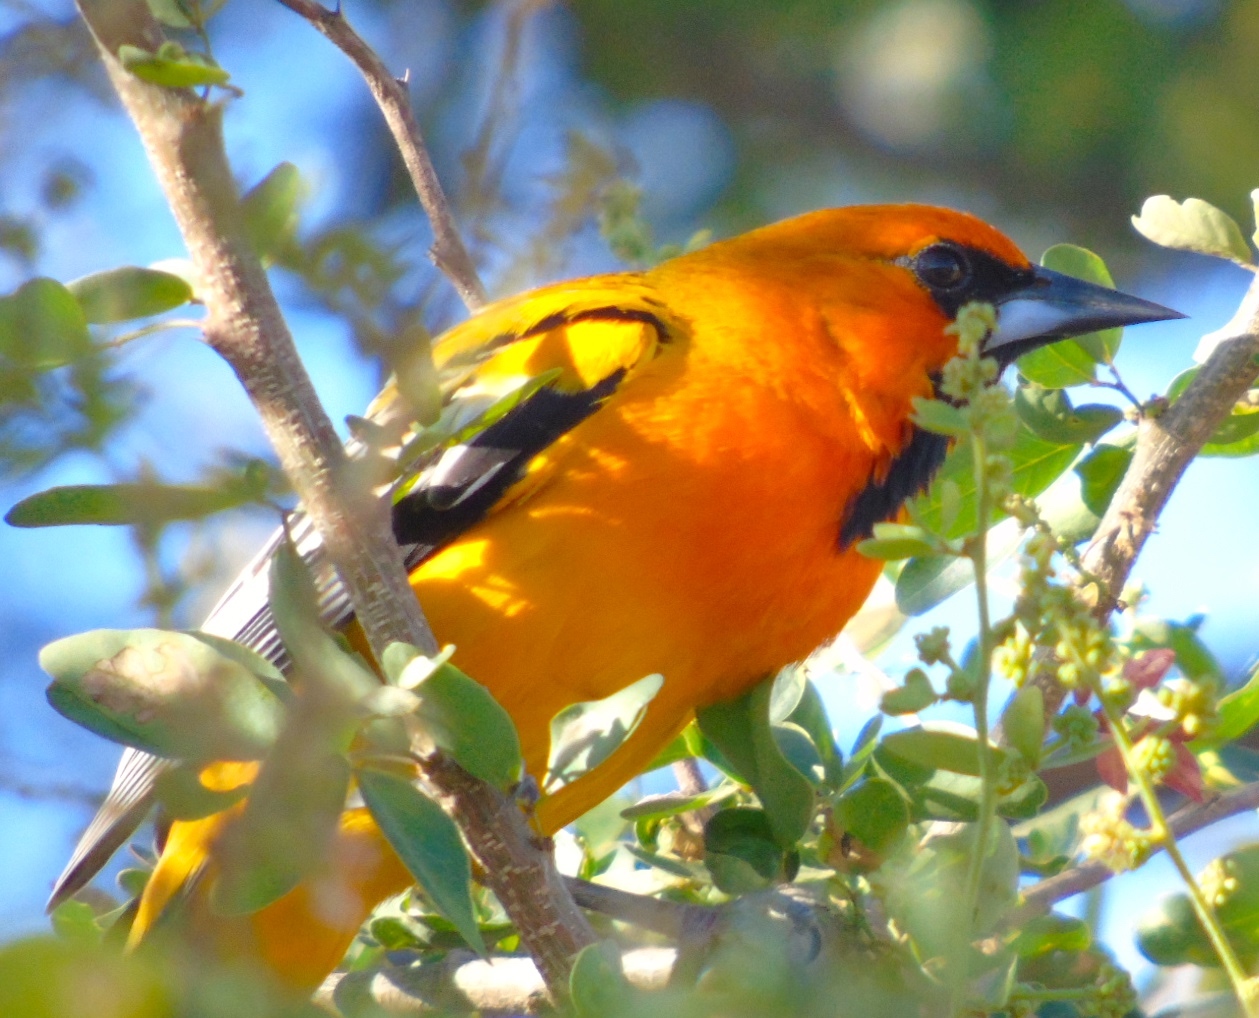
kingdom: Animalia
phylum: Chordata
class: Aves
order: Passeriformes
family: Icteridae
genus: Icterus
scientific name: Icterus pustulatus
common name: Streak-backed oriole
